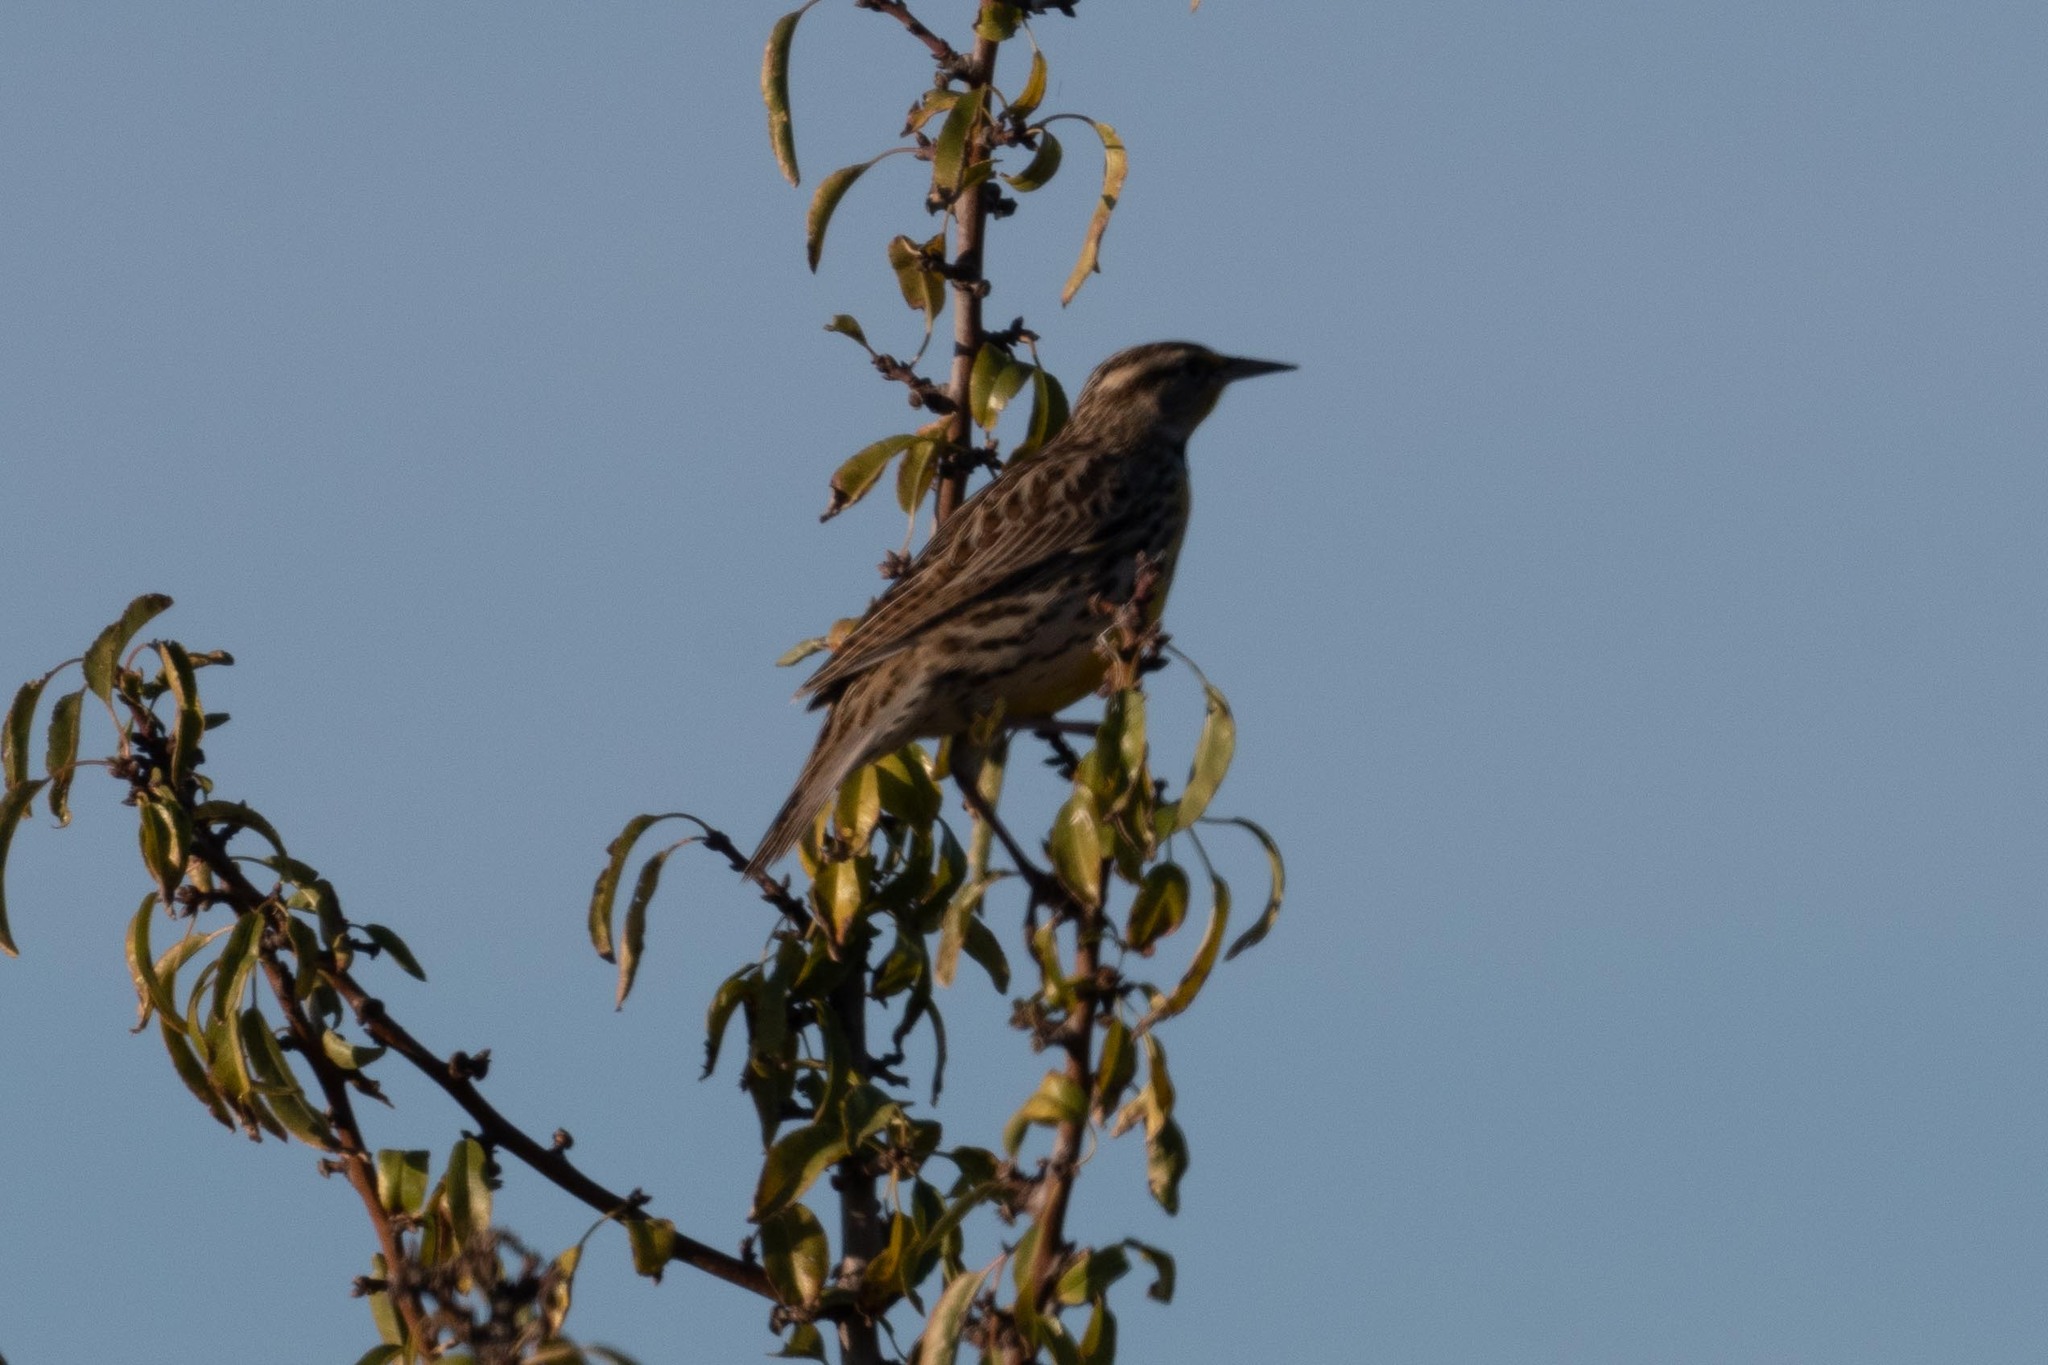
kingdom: Animalia
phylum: Chordata
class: Aves
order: Passeriformes
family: Icteridae
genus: Sturnella
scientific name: Sturnella neglecta
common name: Western meadowlark
